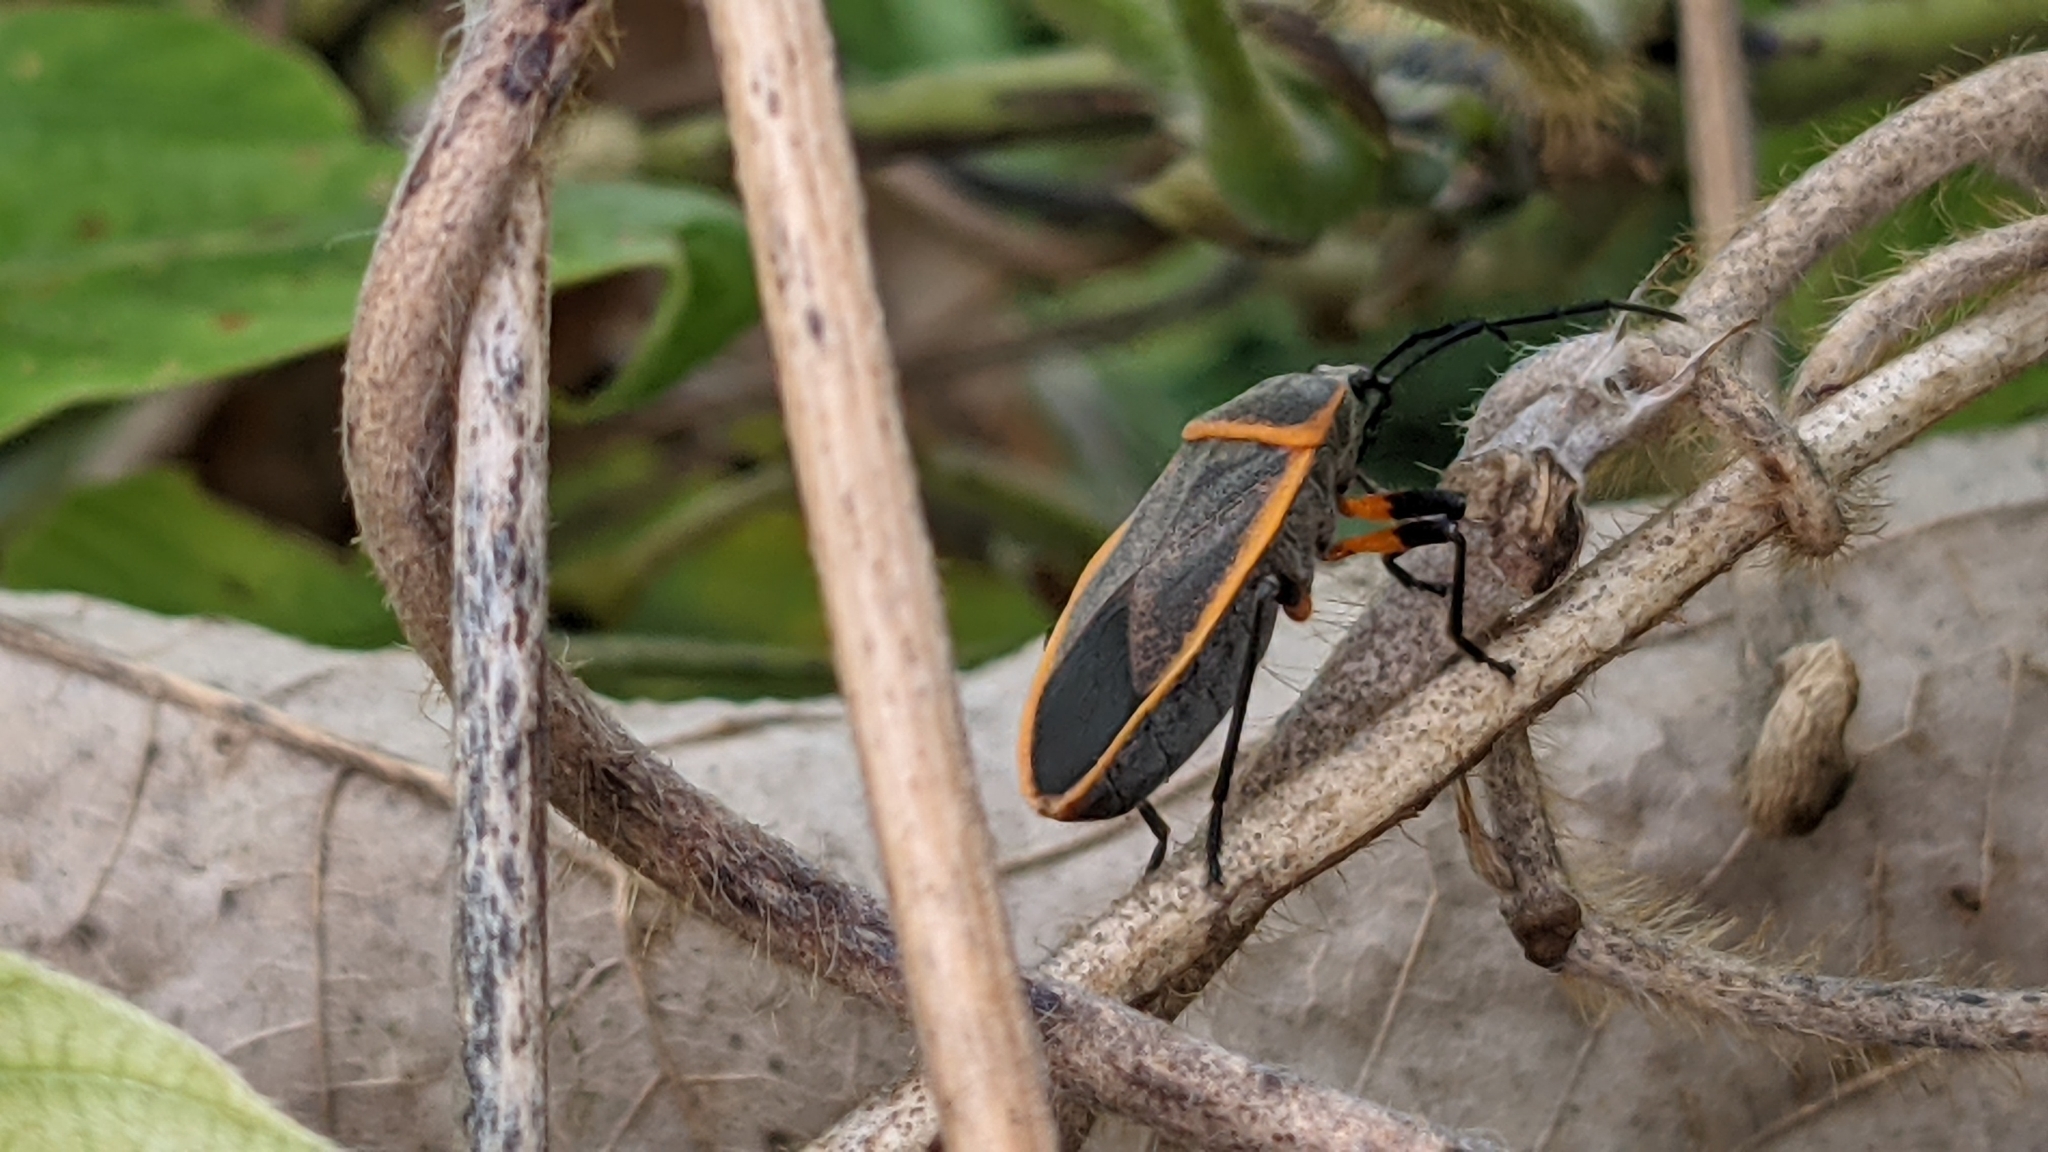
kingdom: Animalia
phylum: Arthropoda
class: Insecta
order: Hemiptera
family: Largidae
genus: Largus
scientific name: Largus succinctus
